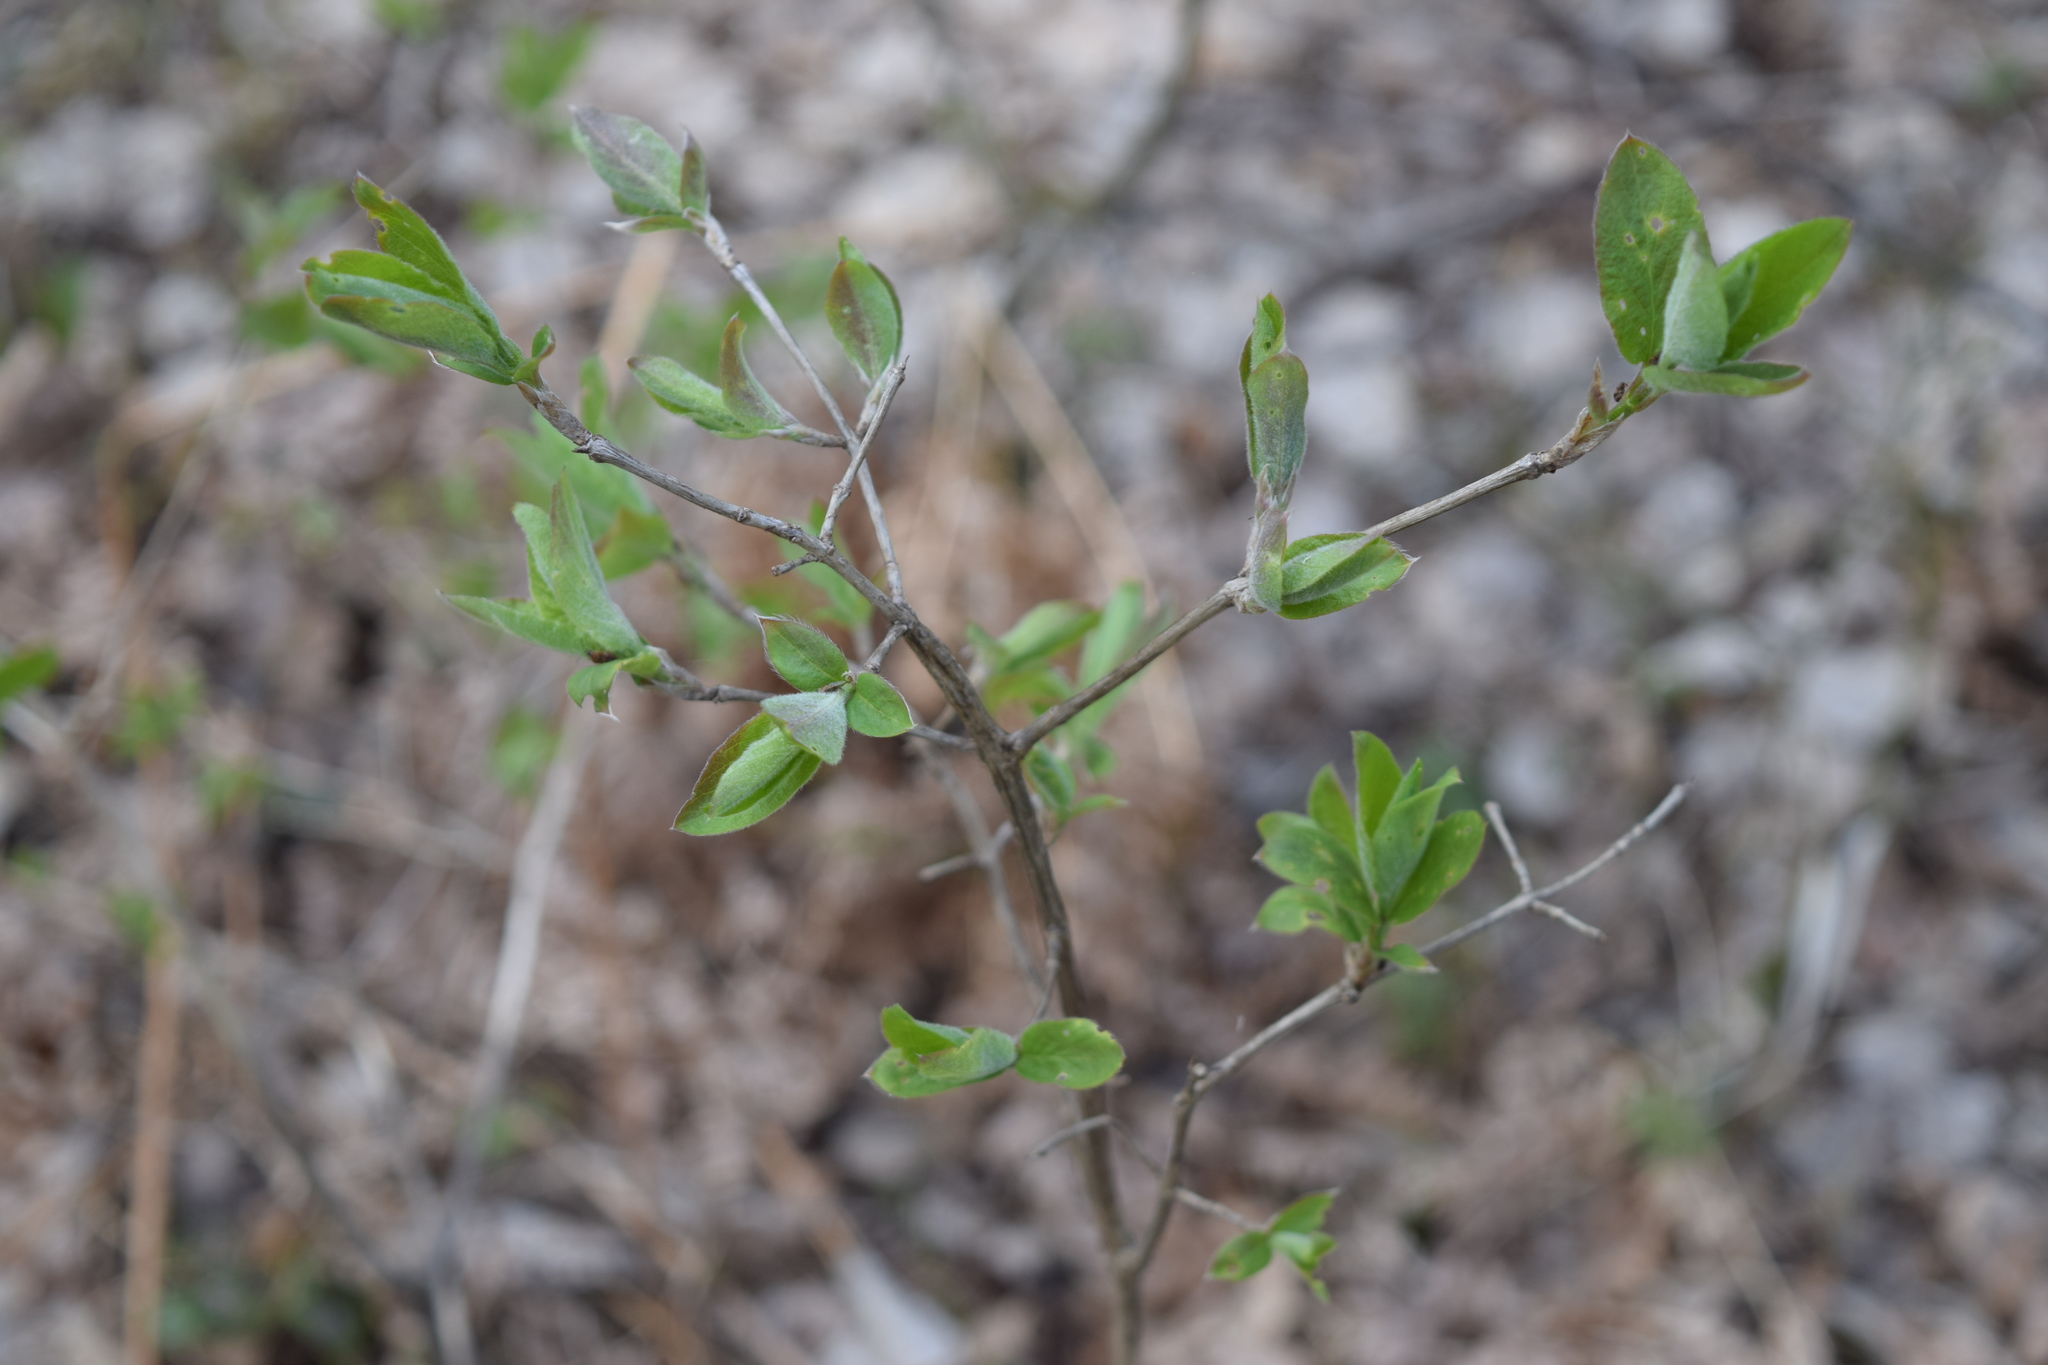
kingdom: Plantae
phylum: Tracheophyta
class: Magnoliopsida
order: Dipsacales
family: Caprifoliaceae
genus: Lonicera
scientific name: Lonicera xylosteum
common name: Fly honeysuckle
